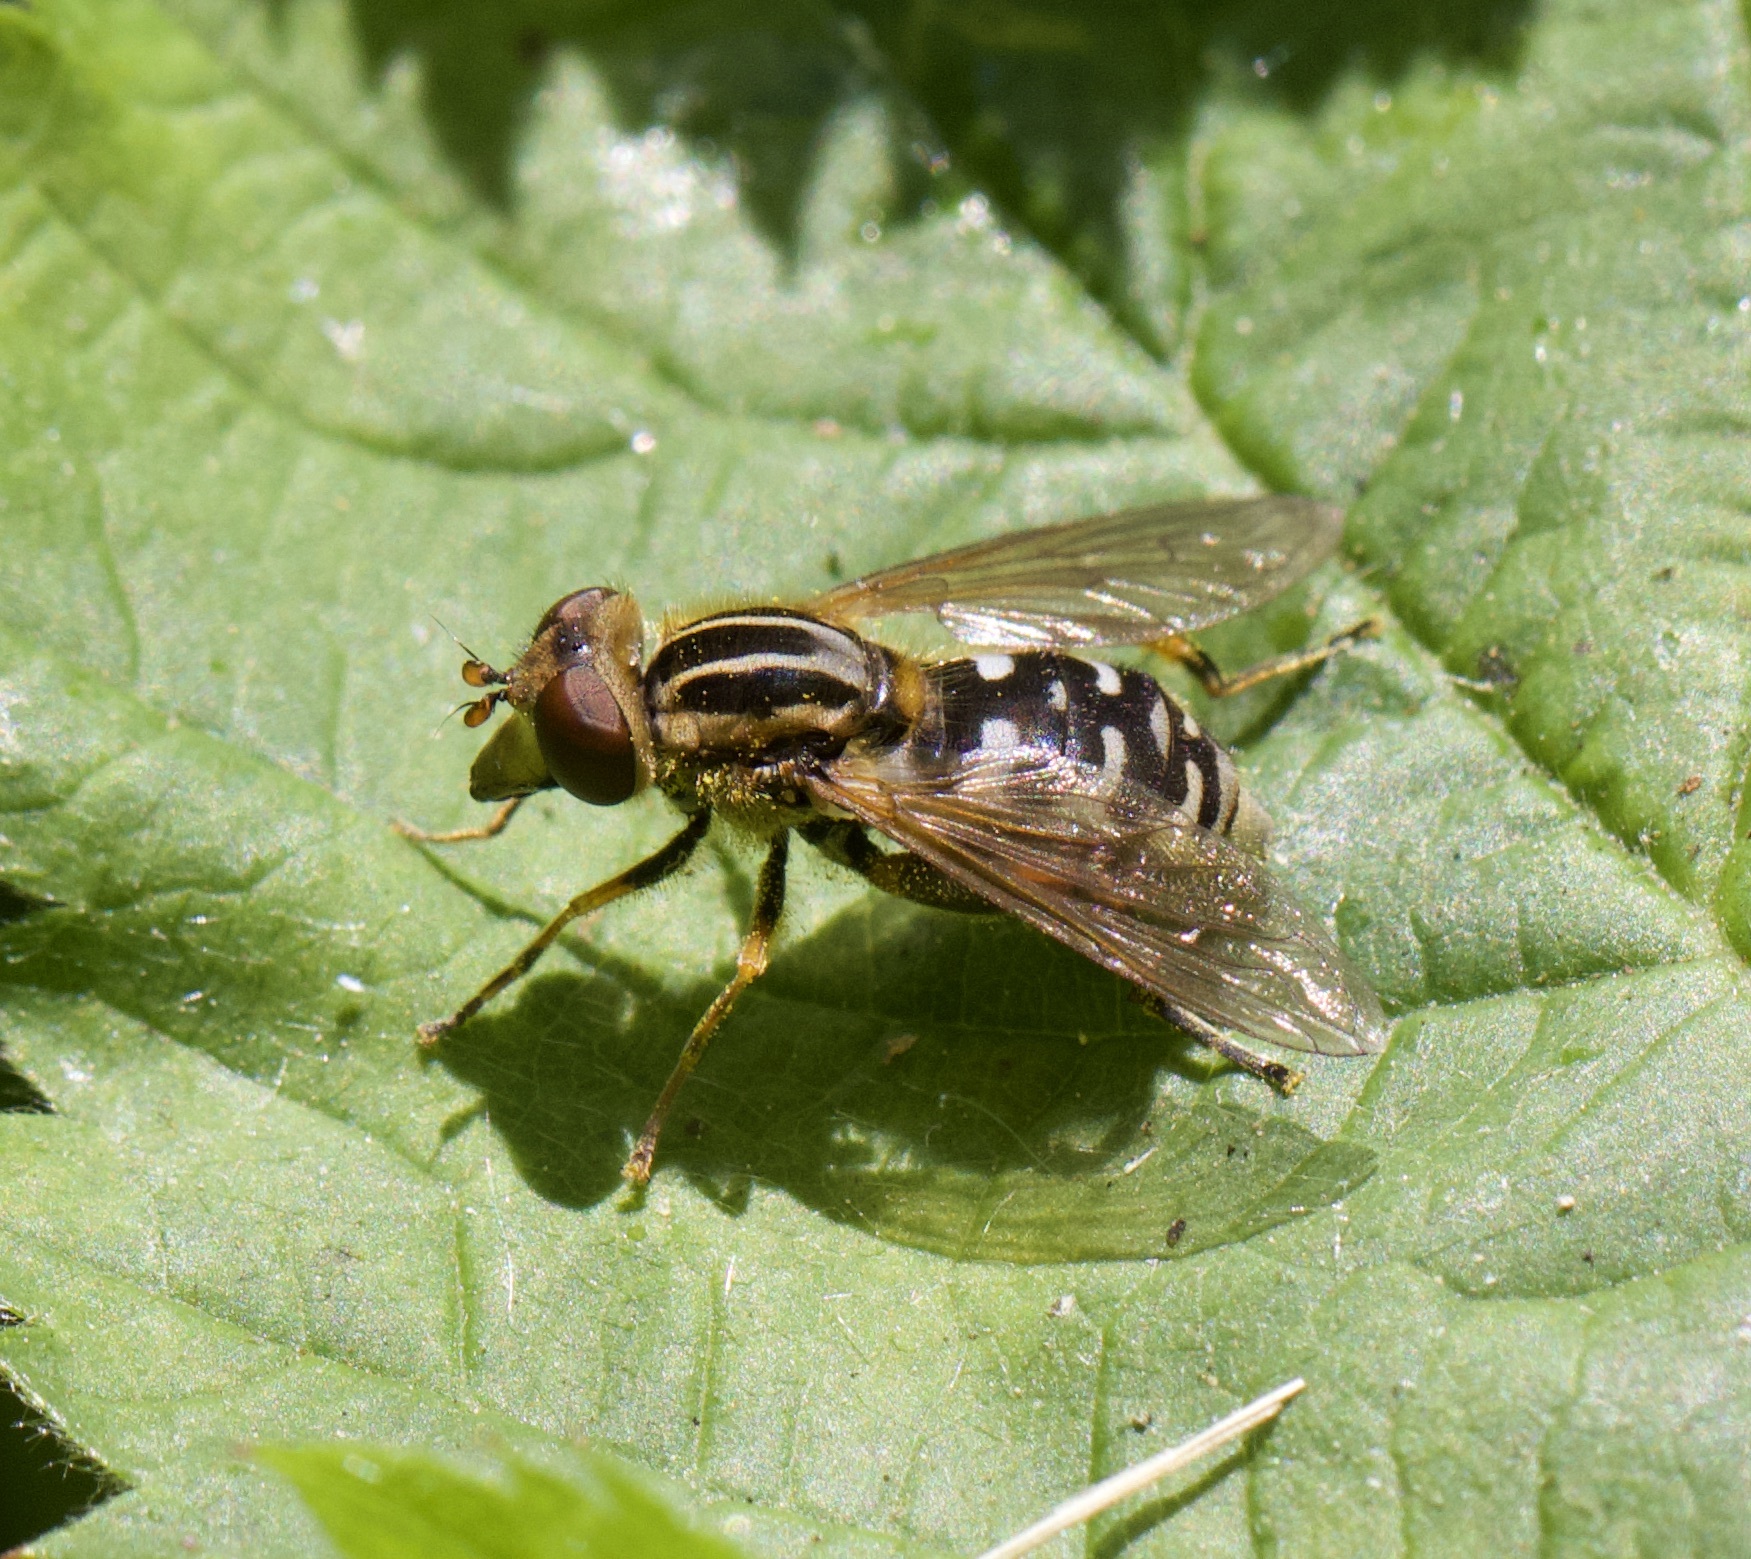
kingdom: Animalia
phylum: Arthropoda
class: Insecta
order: Diptera
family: Syrphidae
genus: Eurimyia
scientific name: Eurimyia lineatus
